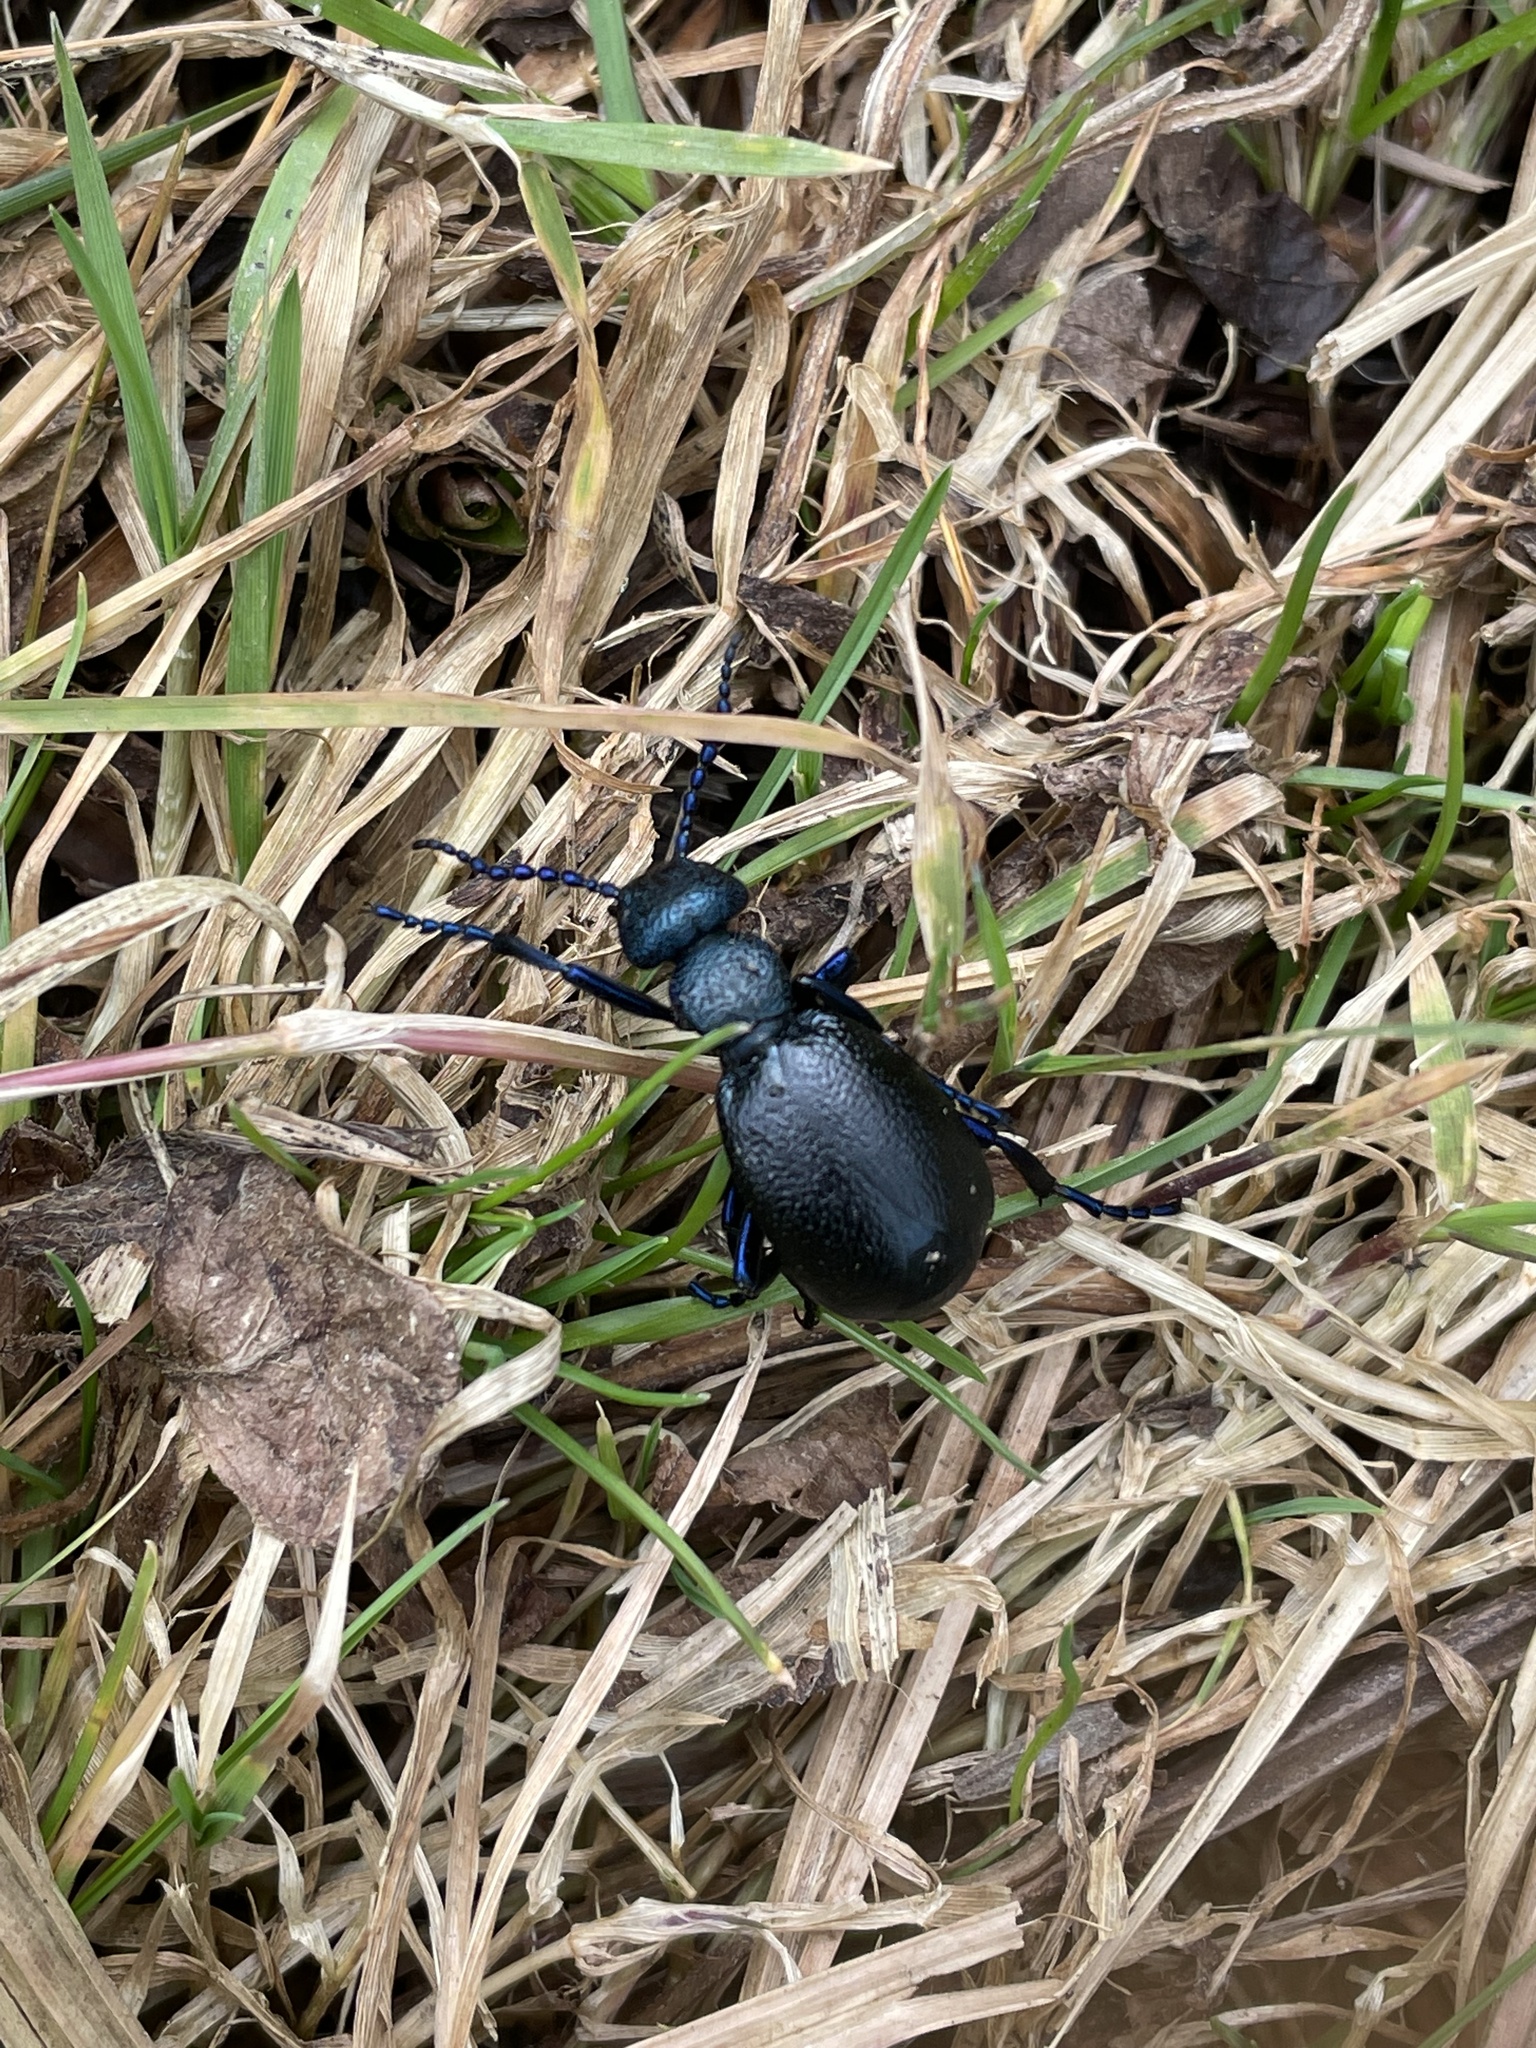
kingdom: Animalia
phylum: Arthropoda
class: Insecta
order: Coleoptera
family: Meloidae
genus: Meloe
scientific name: Meloe proscarabaeus
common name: Black oil-beetle
